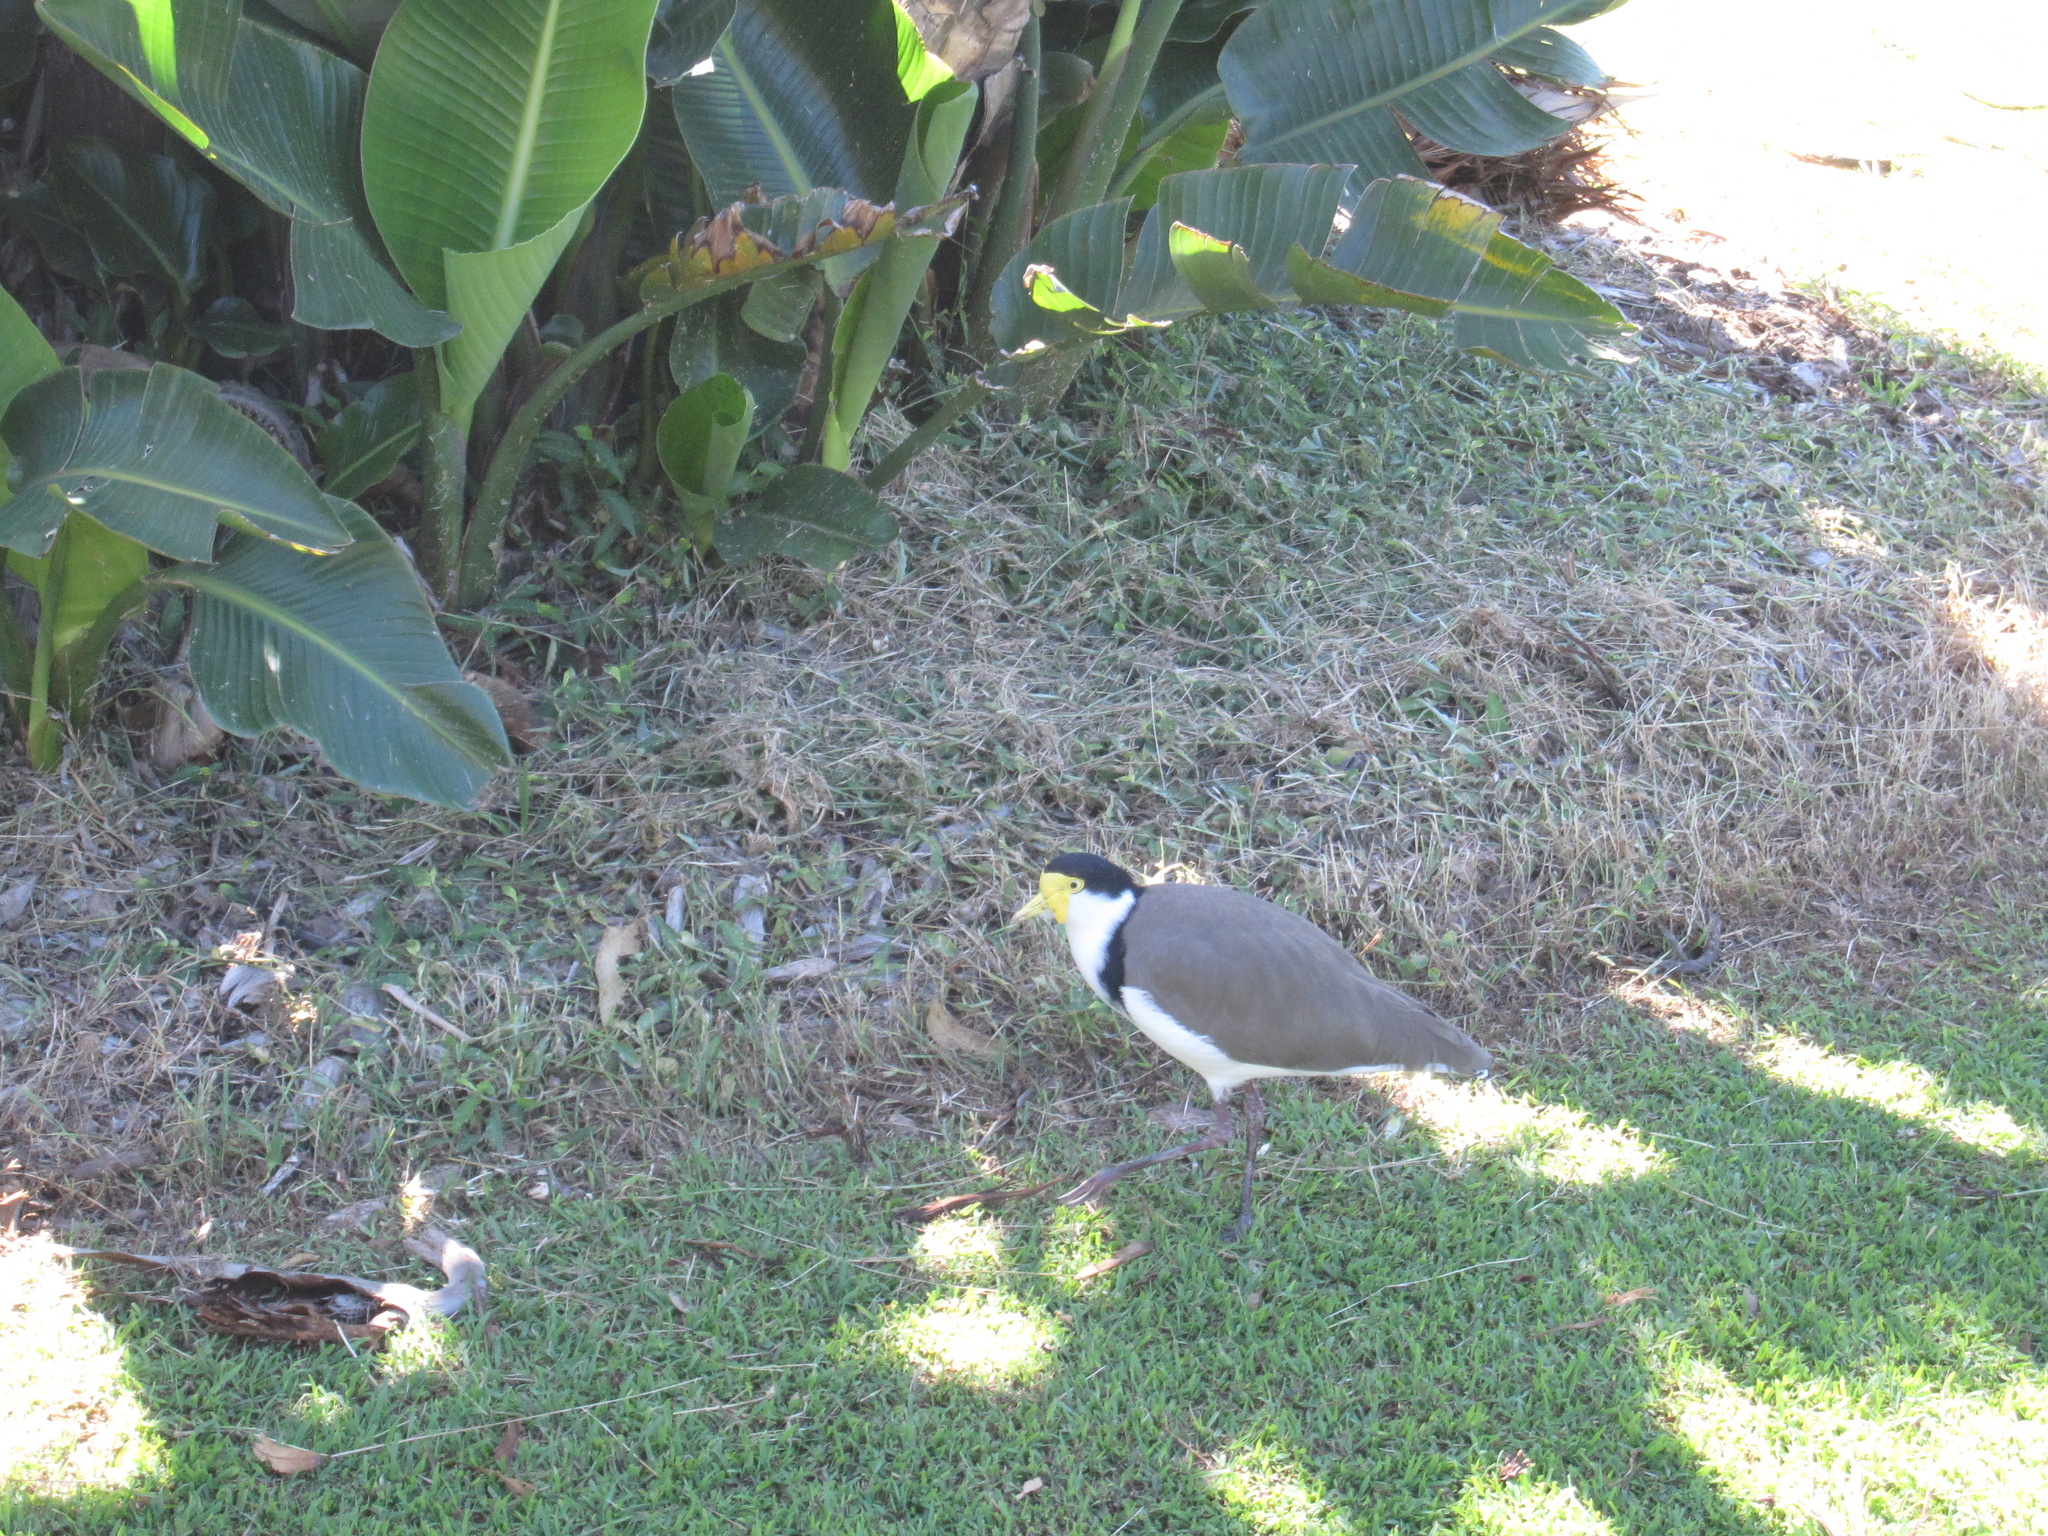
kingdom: Animalia
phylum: Chordata
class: Aves
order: Charadriiformes
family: Charadriidae
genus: Vanellus
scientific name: Vanellus miles
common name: Masked lapwing
